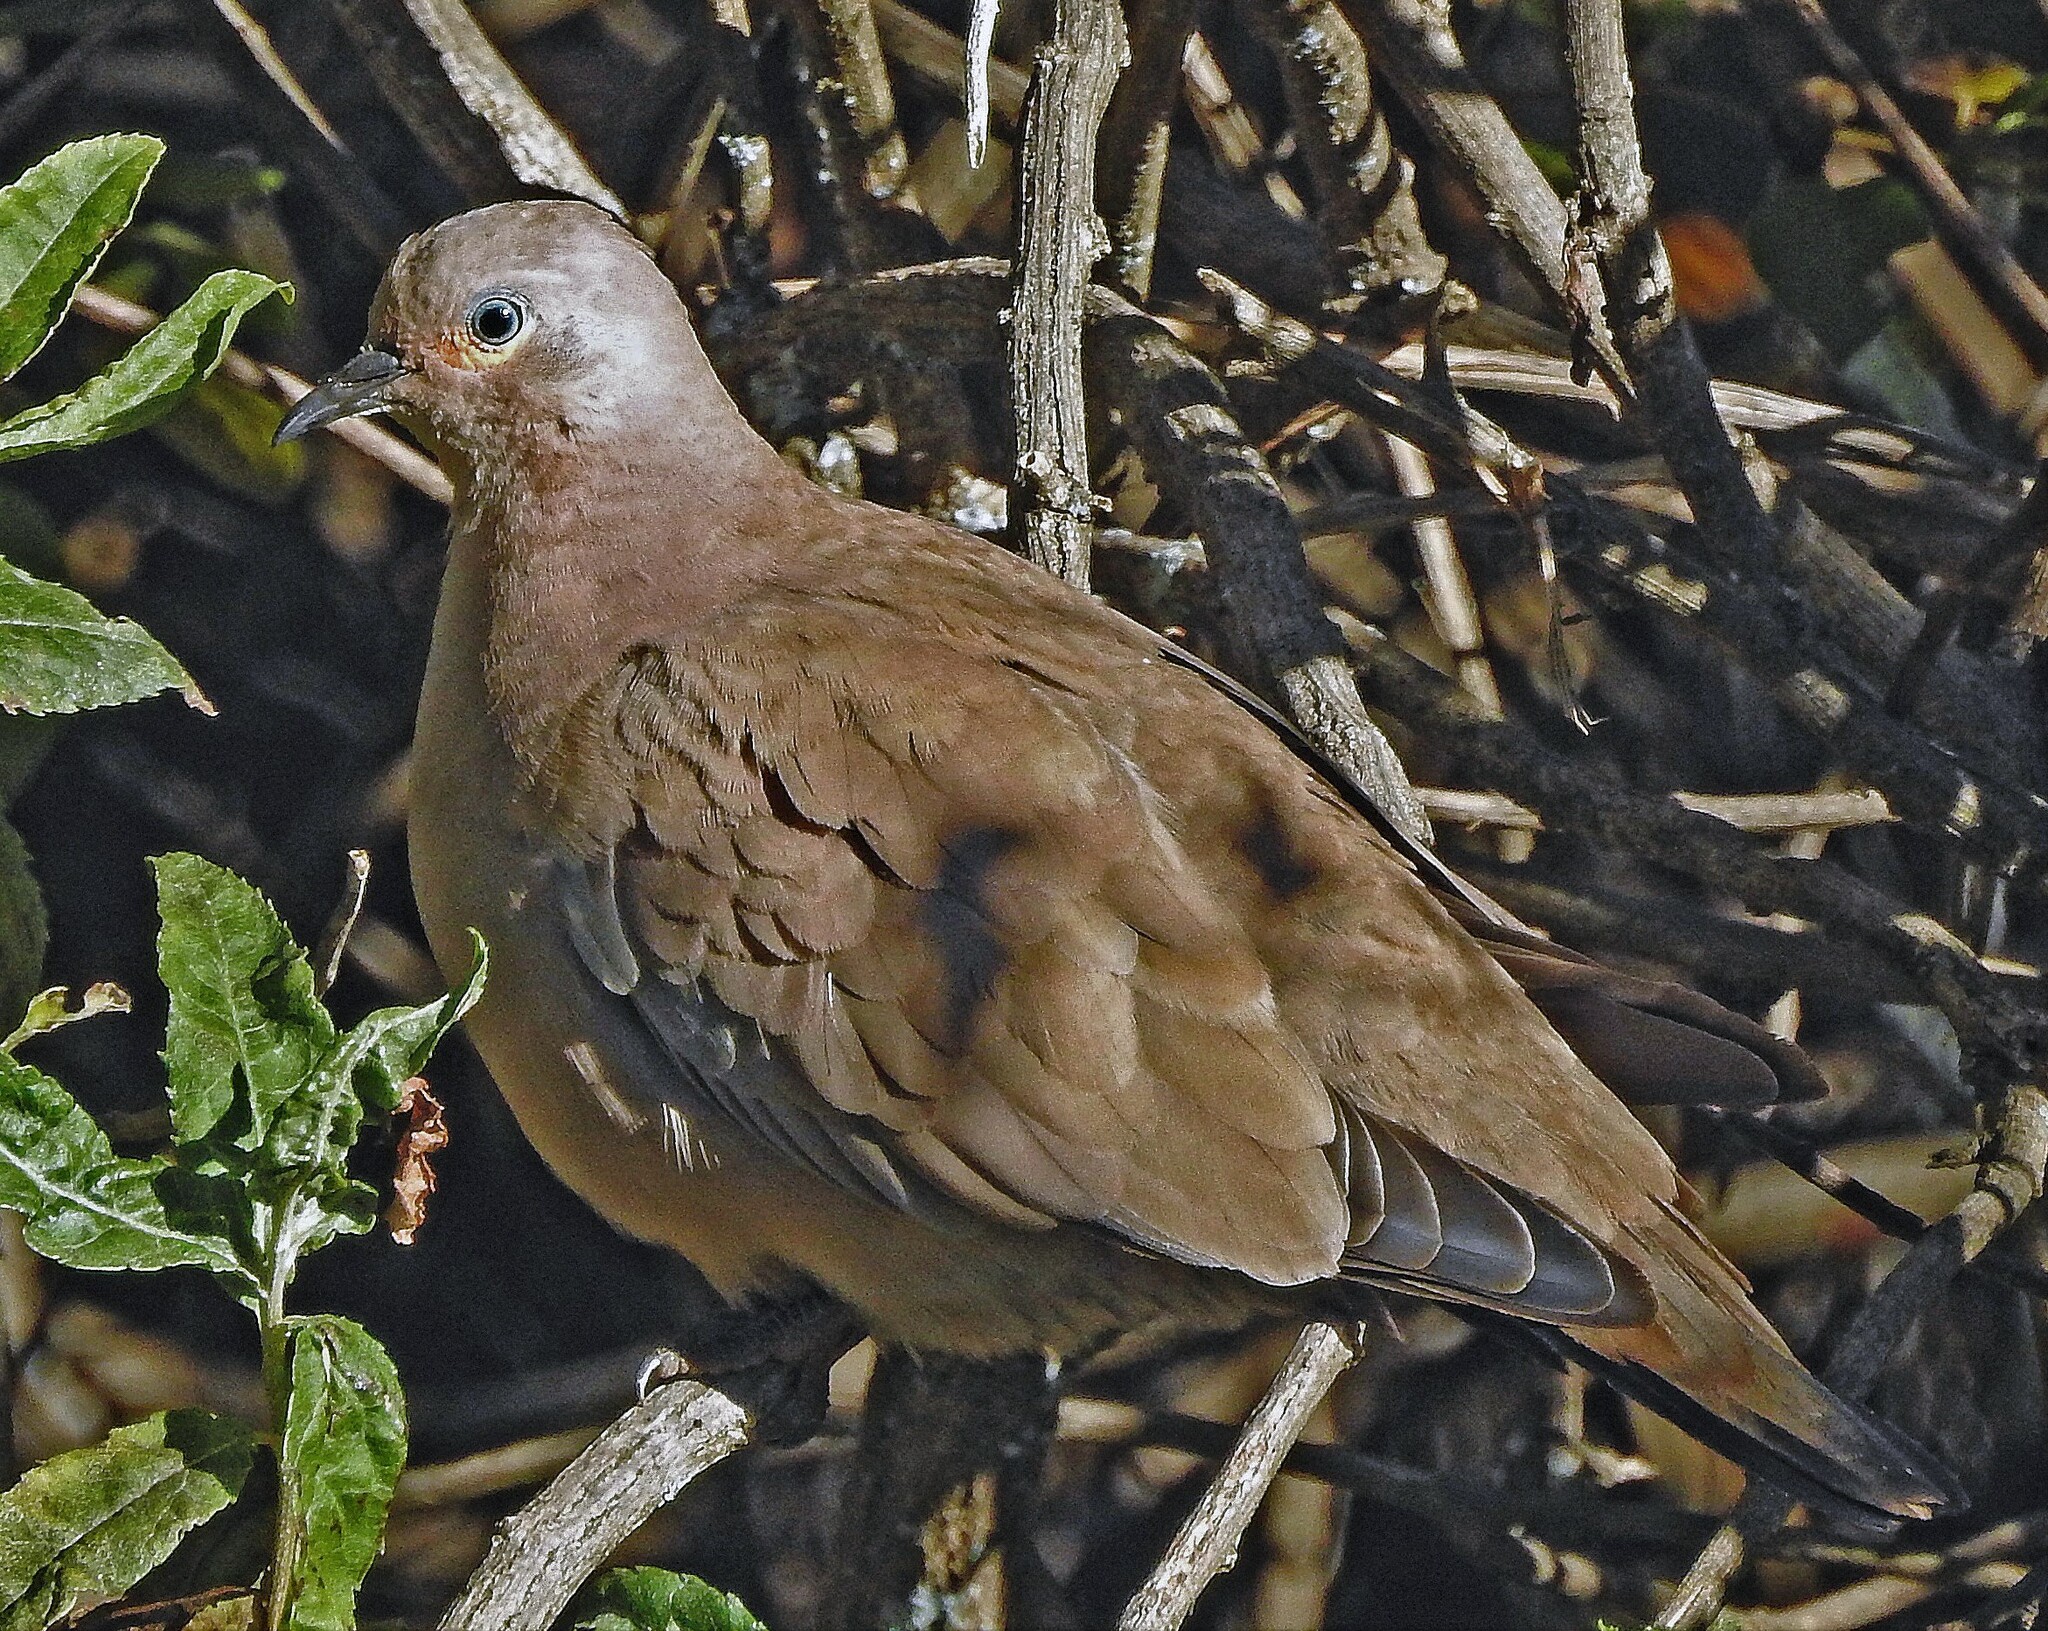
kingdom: Animalia
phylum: Chordata
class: Aves
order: Columbiformes
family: Columbidae
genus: Metriopelia
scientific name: Metriopelia melanoptera
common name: Black-winged ground dove
